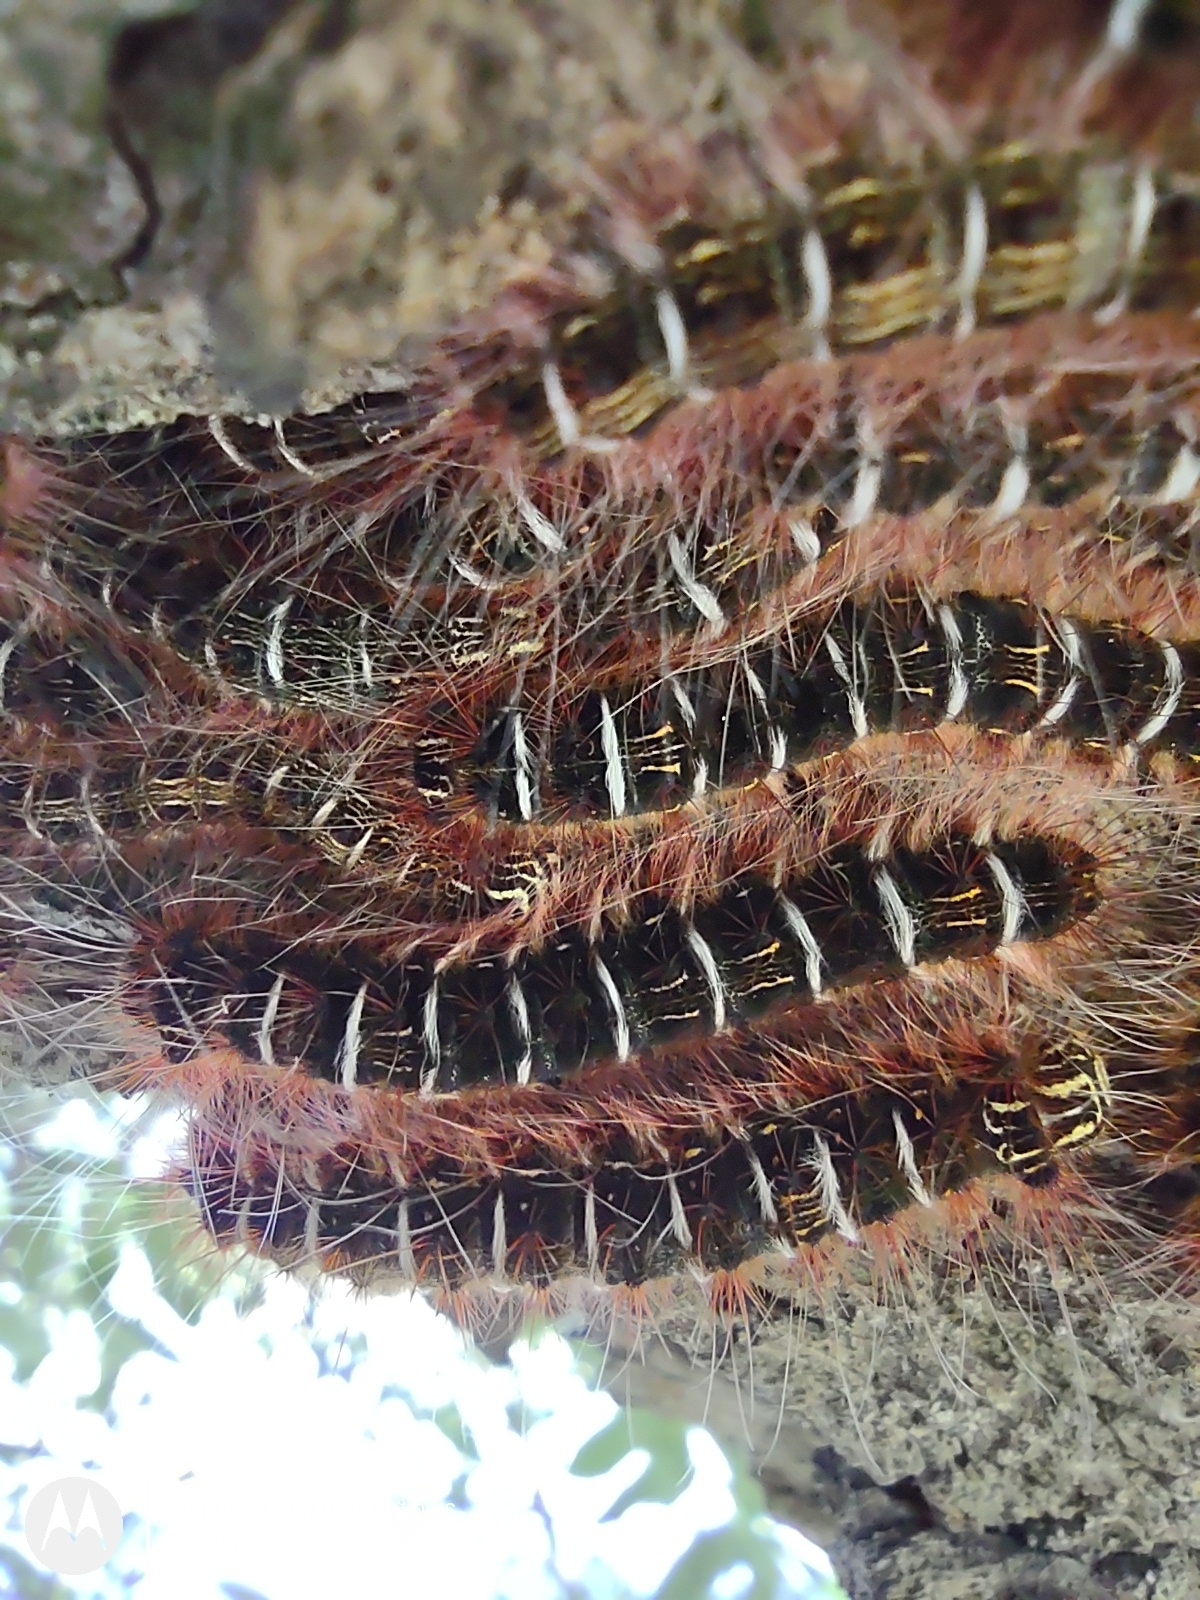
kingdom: Animalia
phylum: Arthropoda
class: Insecta
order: Lepidoptera
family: Lasiocampidae
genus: Euglyphis
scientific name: Euglyphis nocens
